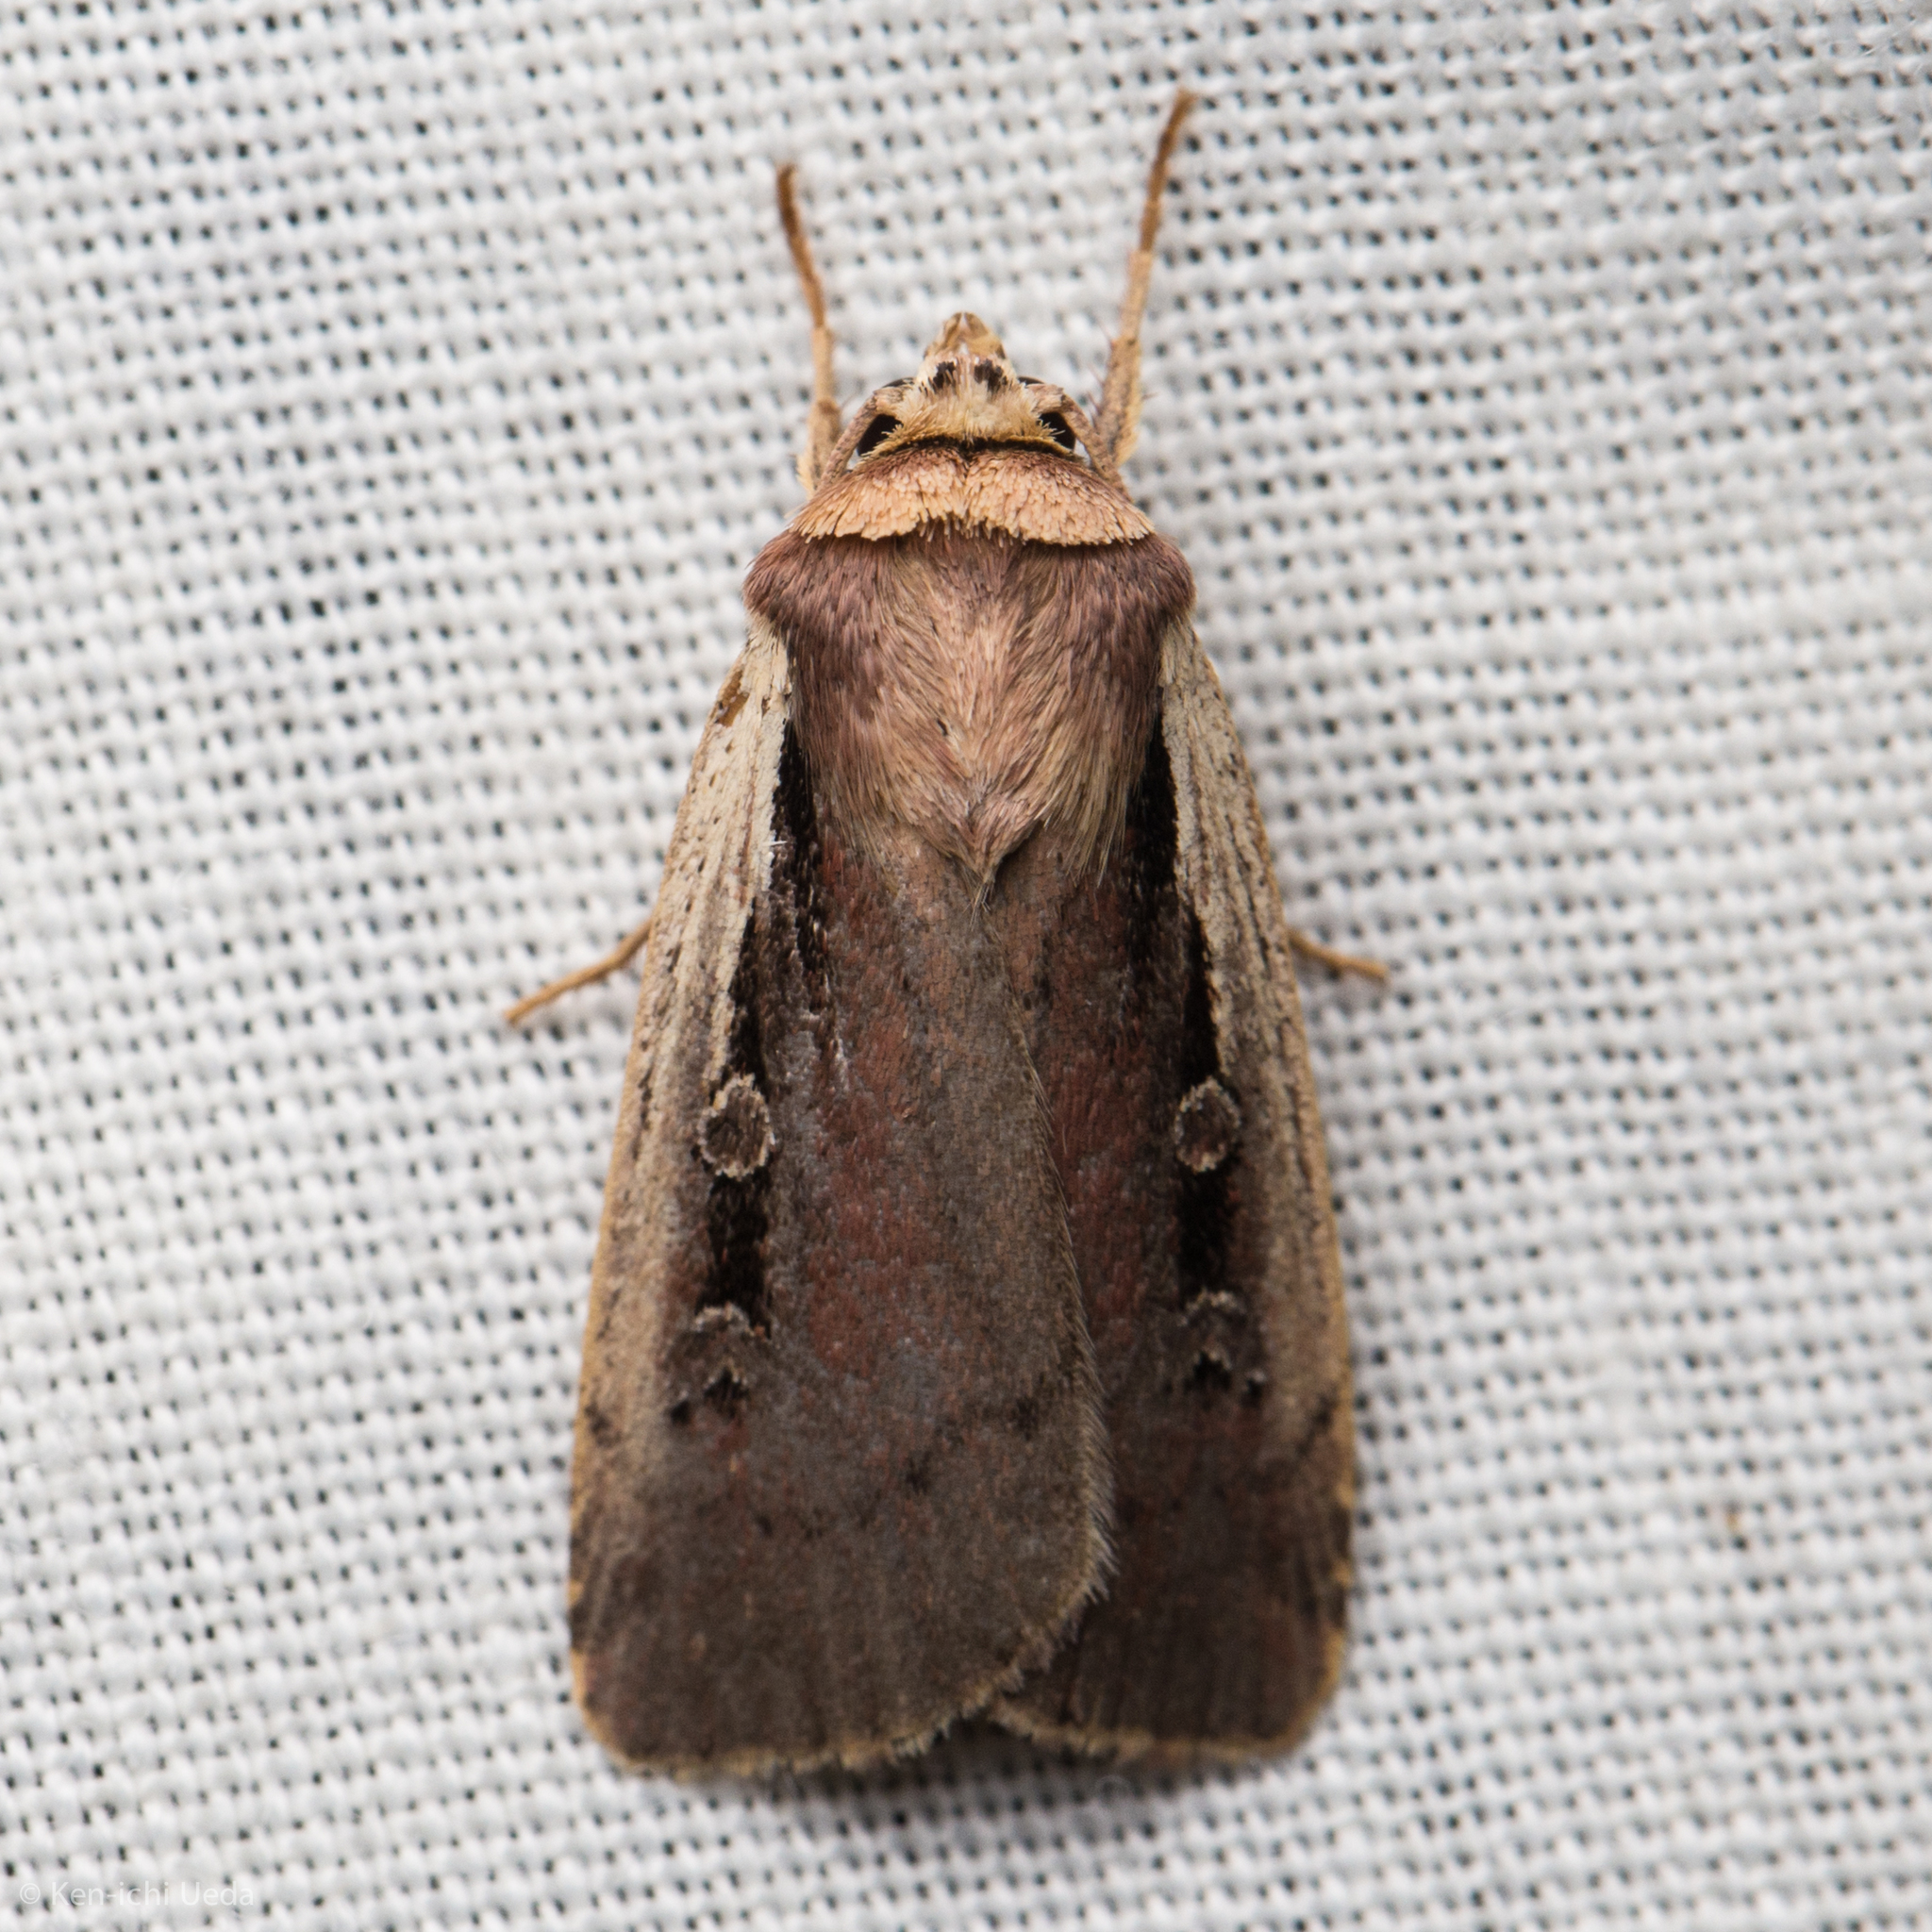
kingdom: Animalia
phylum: Arthropoda
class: Insecta
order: Lepidoptera
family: Noctuidae
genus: Ochropleura
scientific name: Ochropleura implecta
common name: Flame-shouldered dart
